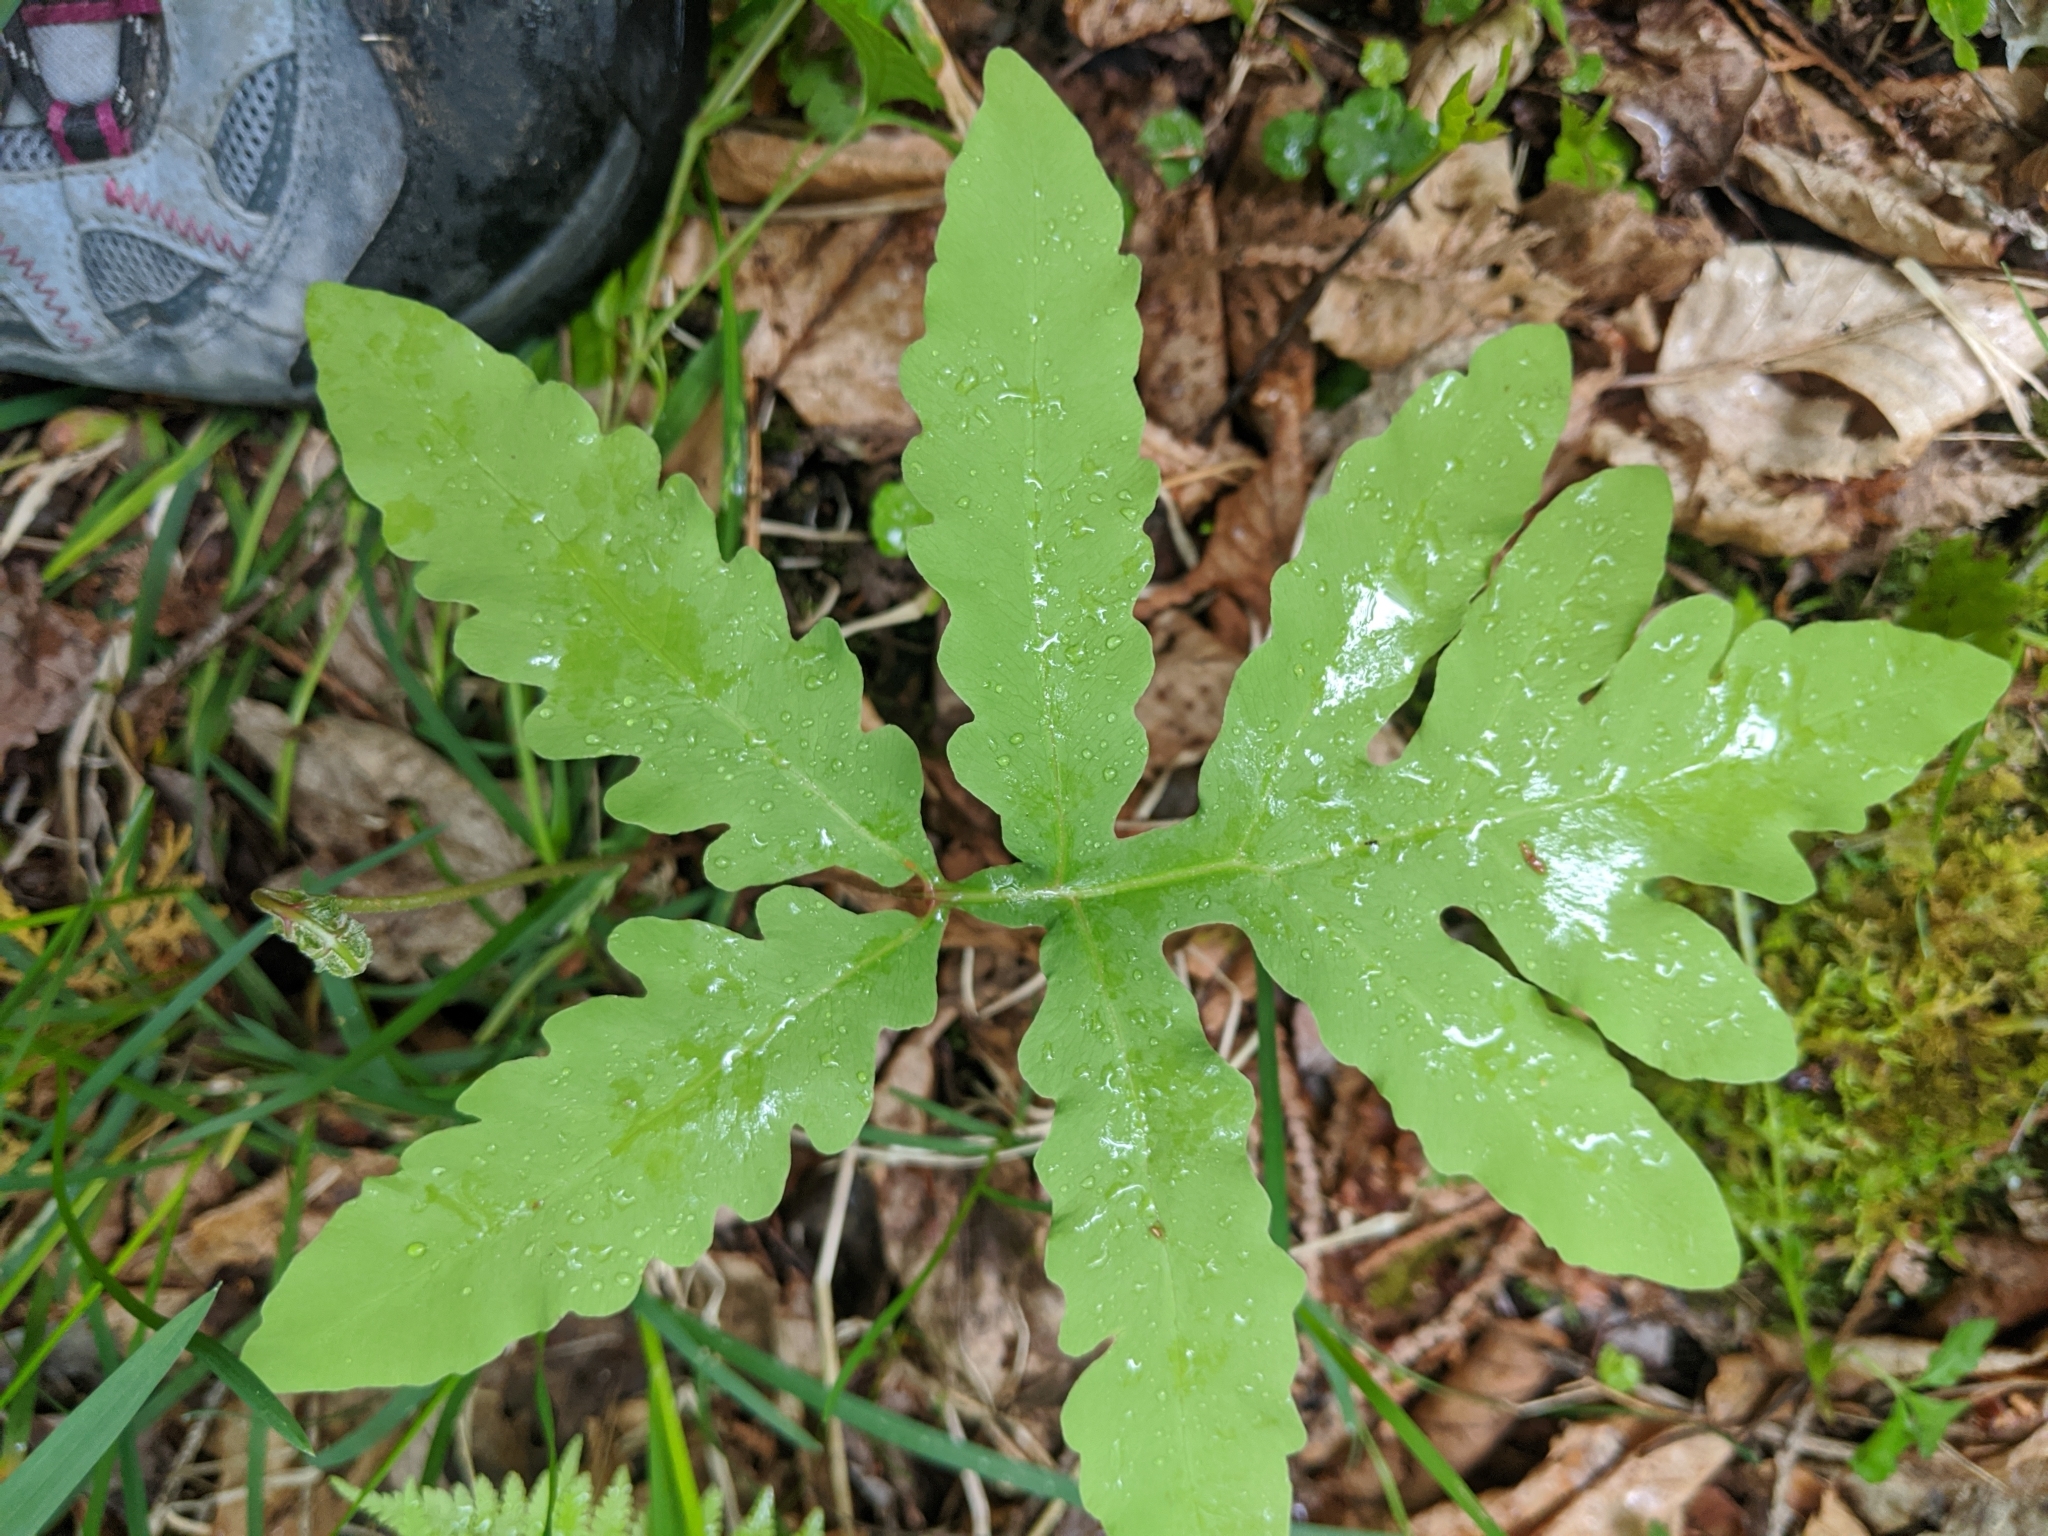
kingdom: Plantae
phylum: Tracheophyta
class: Polypodiopsida
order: Polypodiales
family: Onocleaceae
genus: Onoclea
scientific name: Onoclea sensibilis
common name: Sensitive fern
